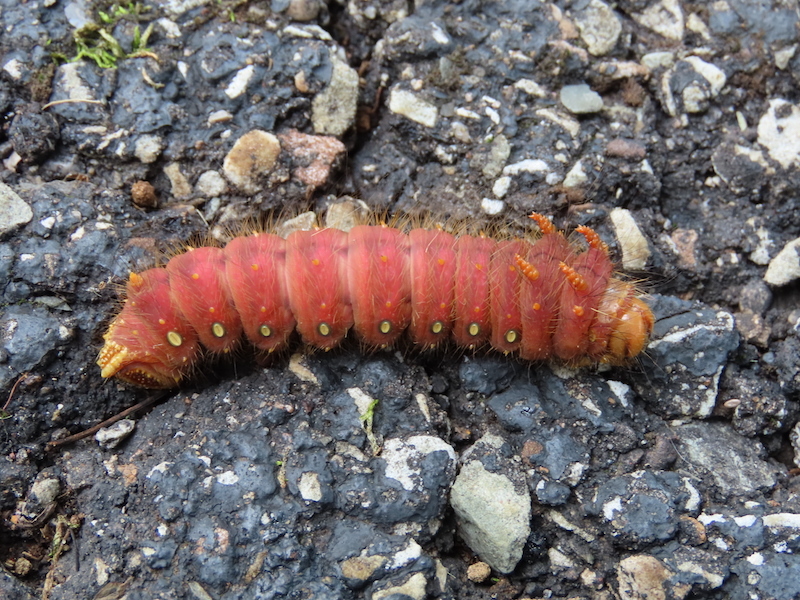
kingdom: Animalia
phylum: Arthropoda
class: Insecta
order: Lepidoptera
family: Saturniidae
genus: Eacles
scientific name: Eacles imperialis
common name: Imperial moth
